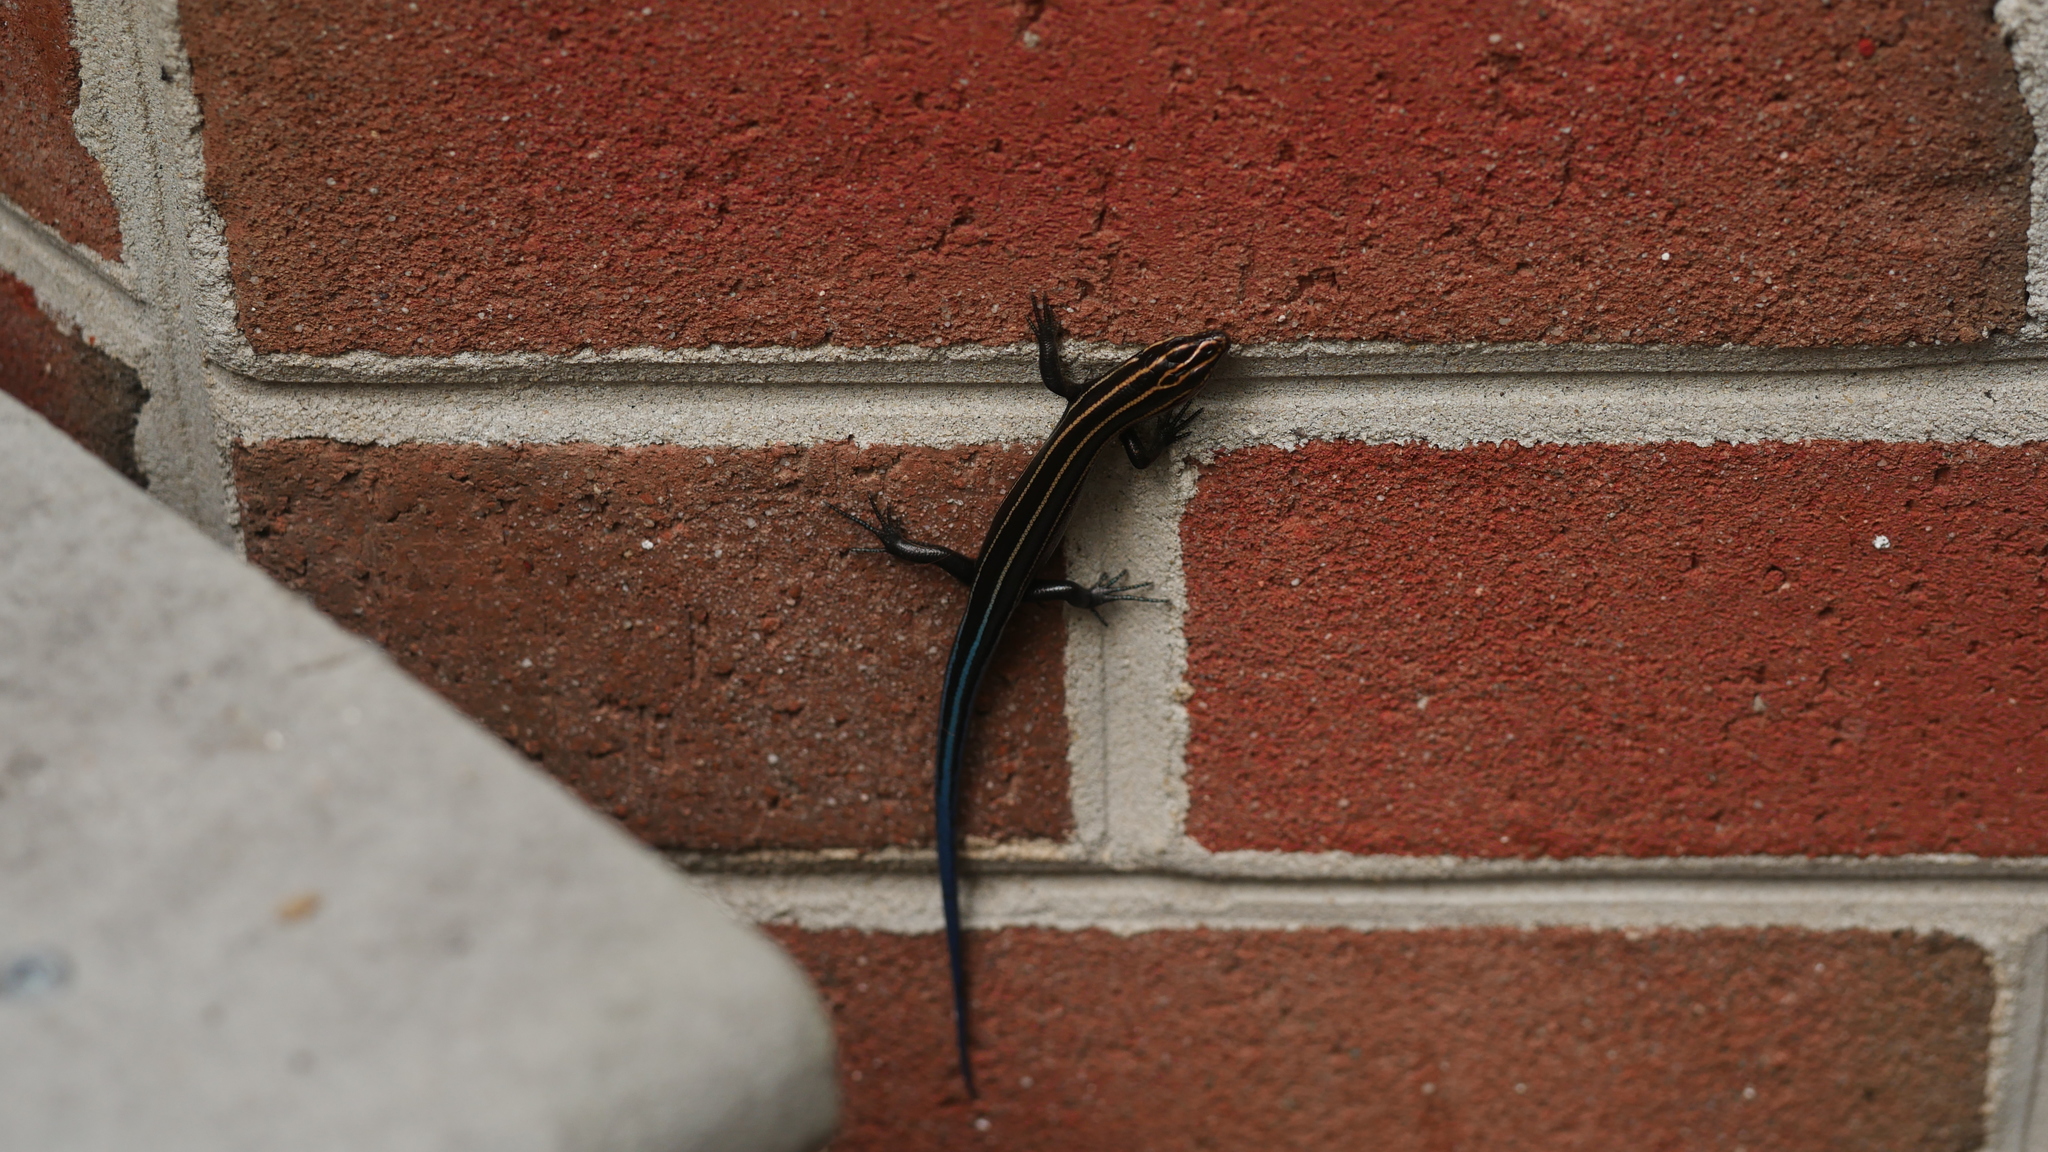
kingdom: Animalia
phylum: Chordata
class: Squamata
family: Scincidae
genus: Plestiodon
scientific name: Plestiodon fasciatus
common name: Five-lined skink
